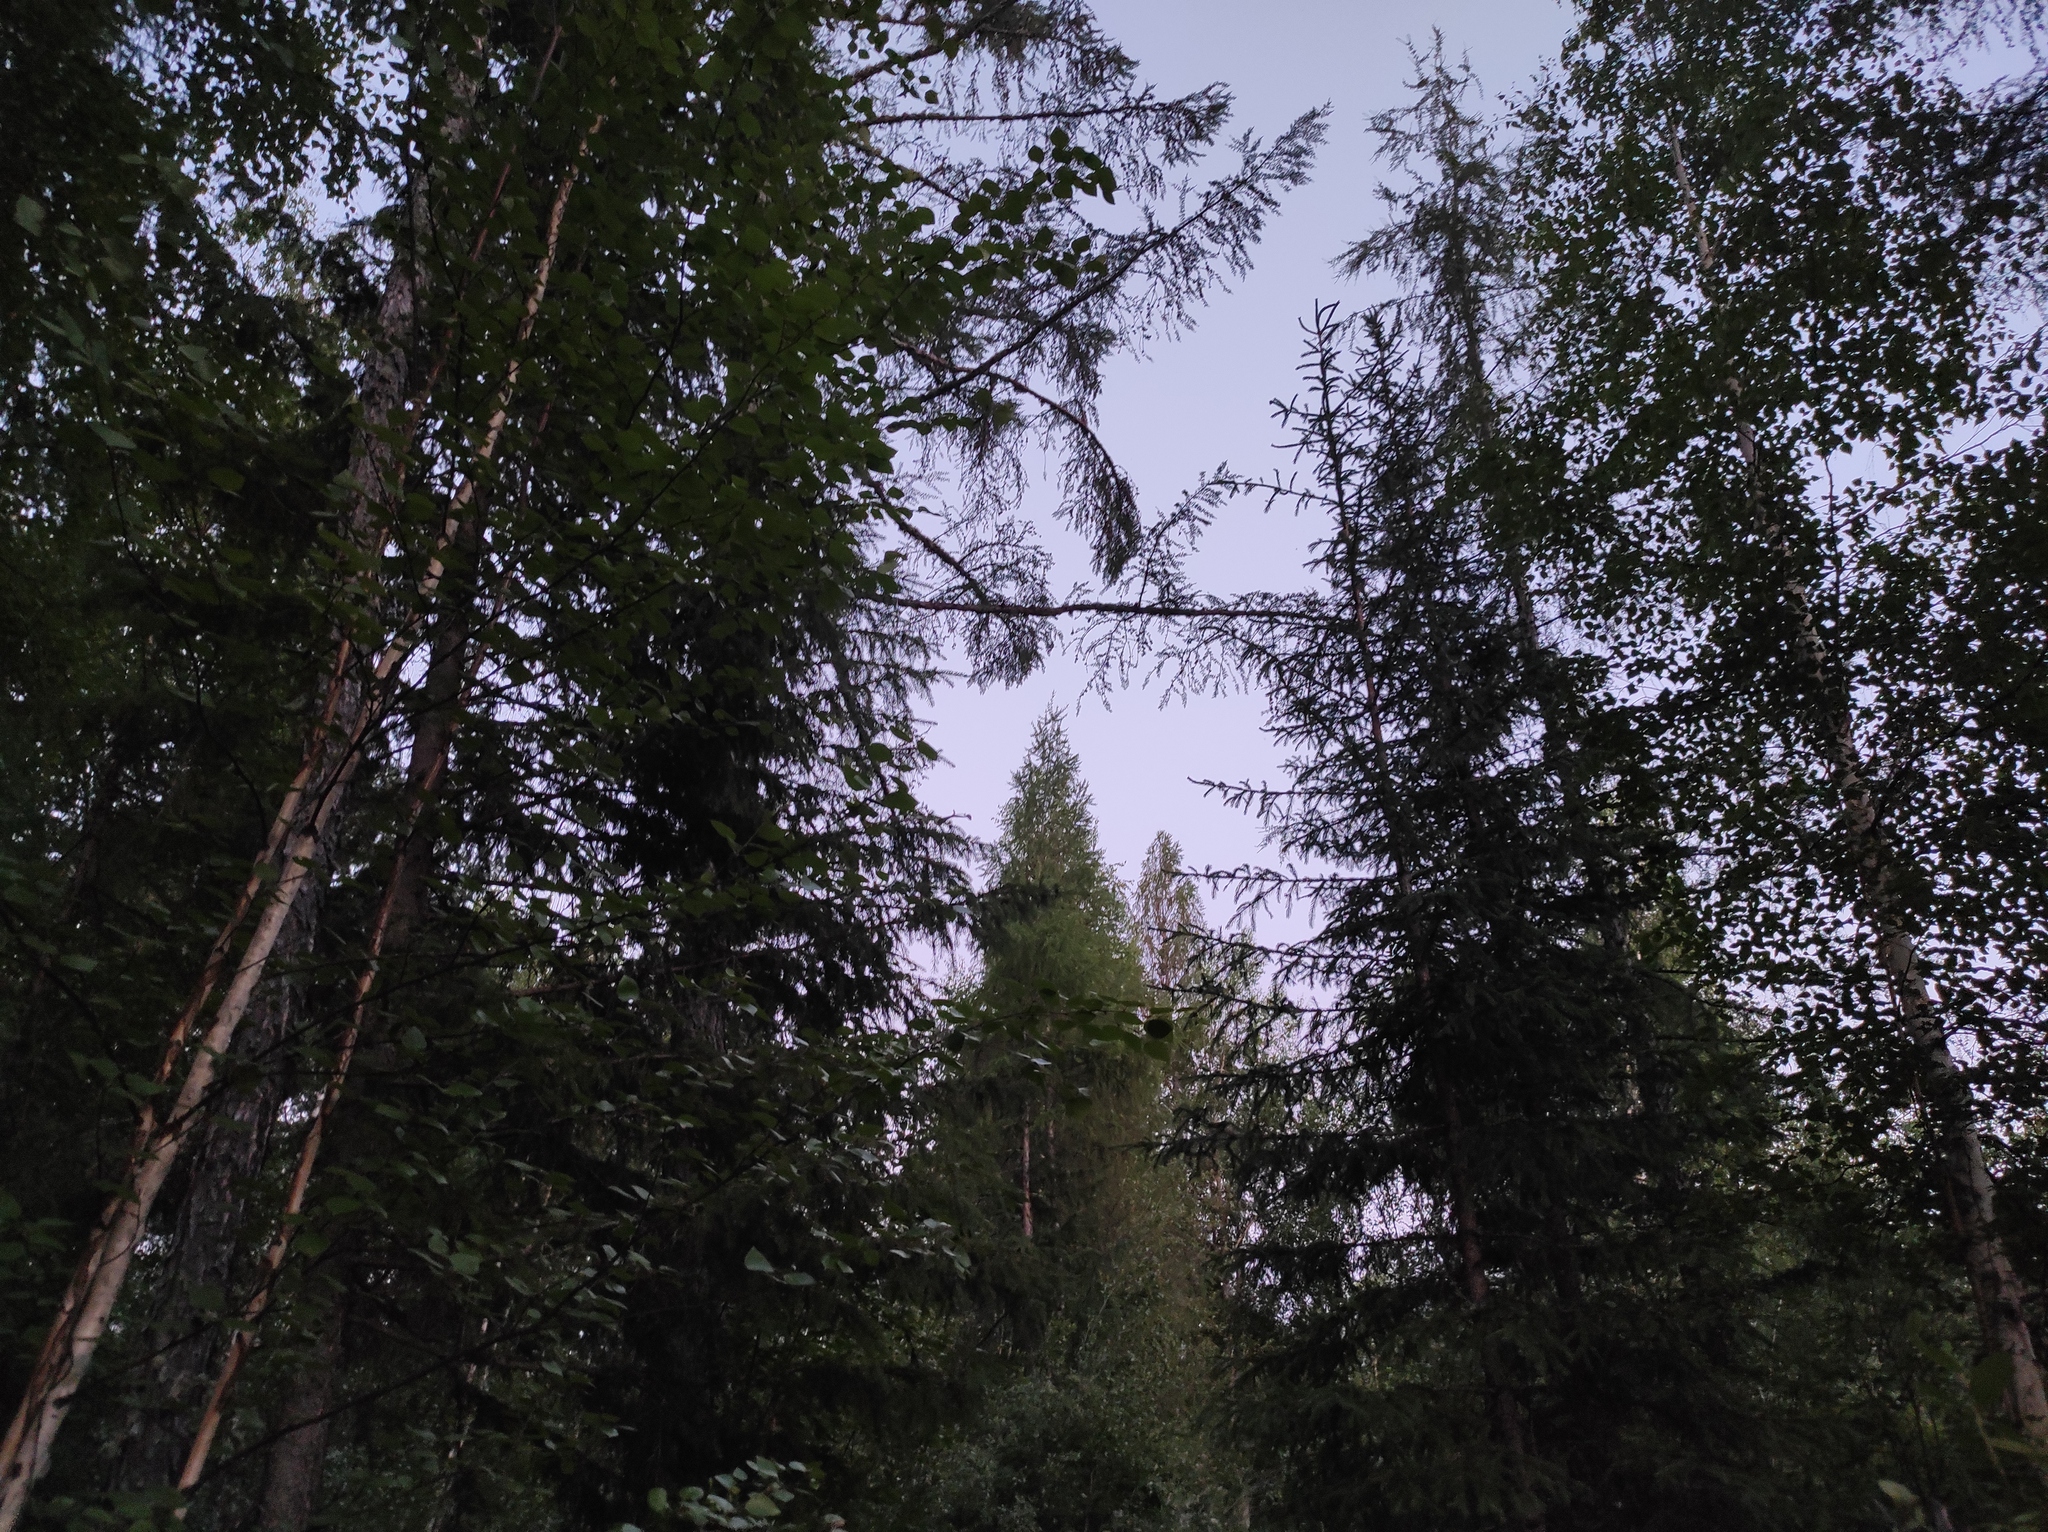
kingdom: Plantae
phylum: Tracheophyta
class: Pinopsida
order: Pinales
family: Pinaceae
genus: Larix
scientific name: Larix gmelinii
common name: Dahurian larch
